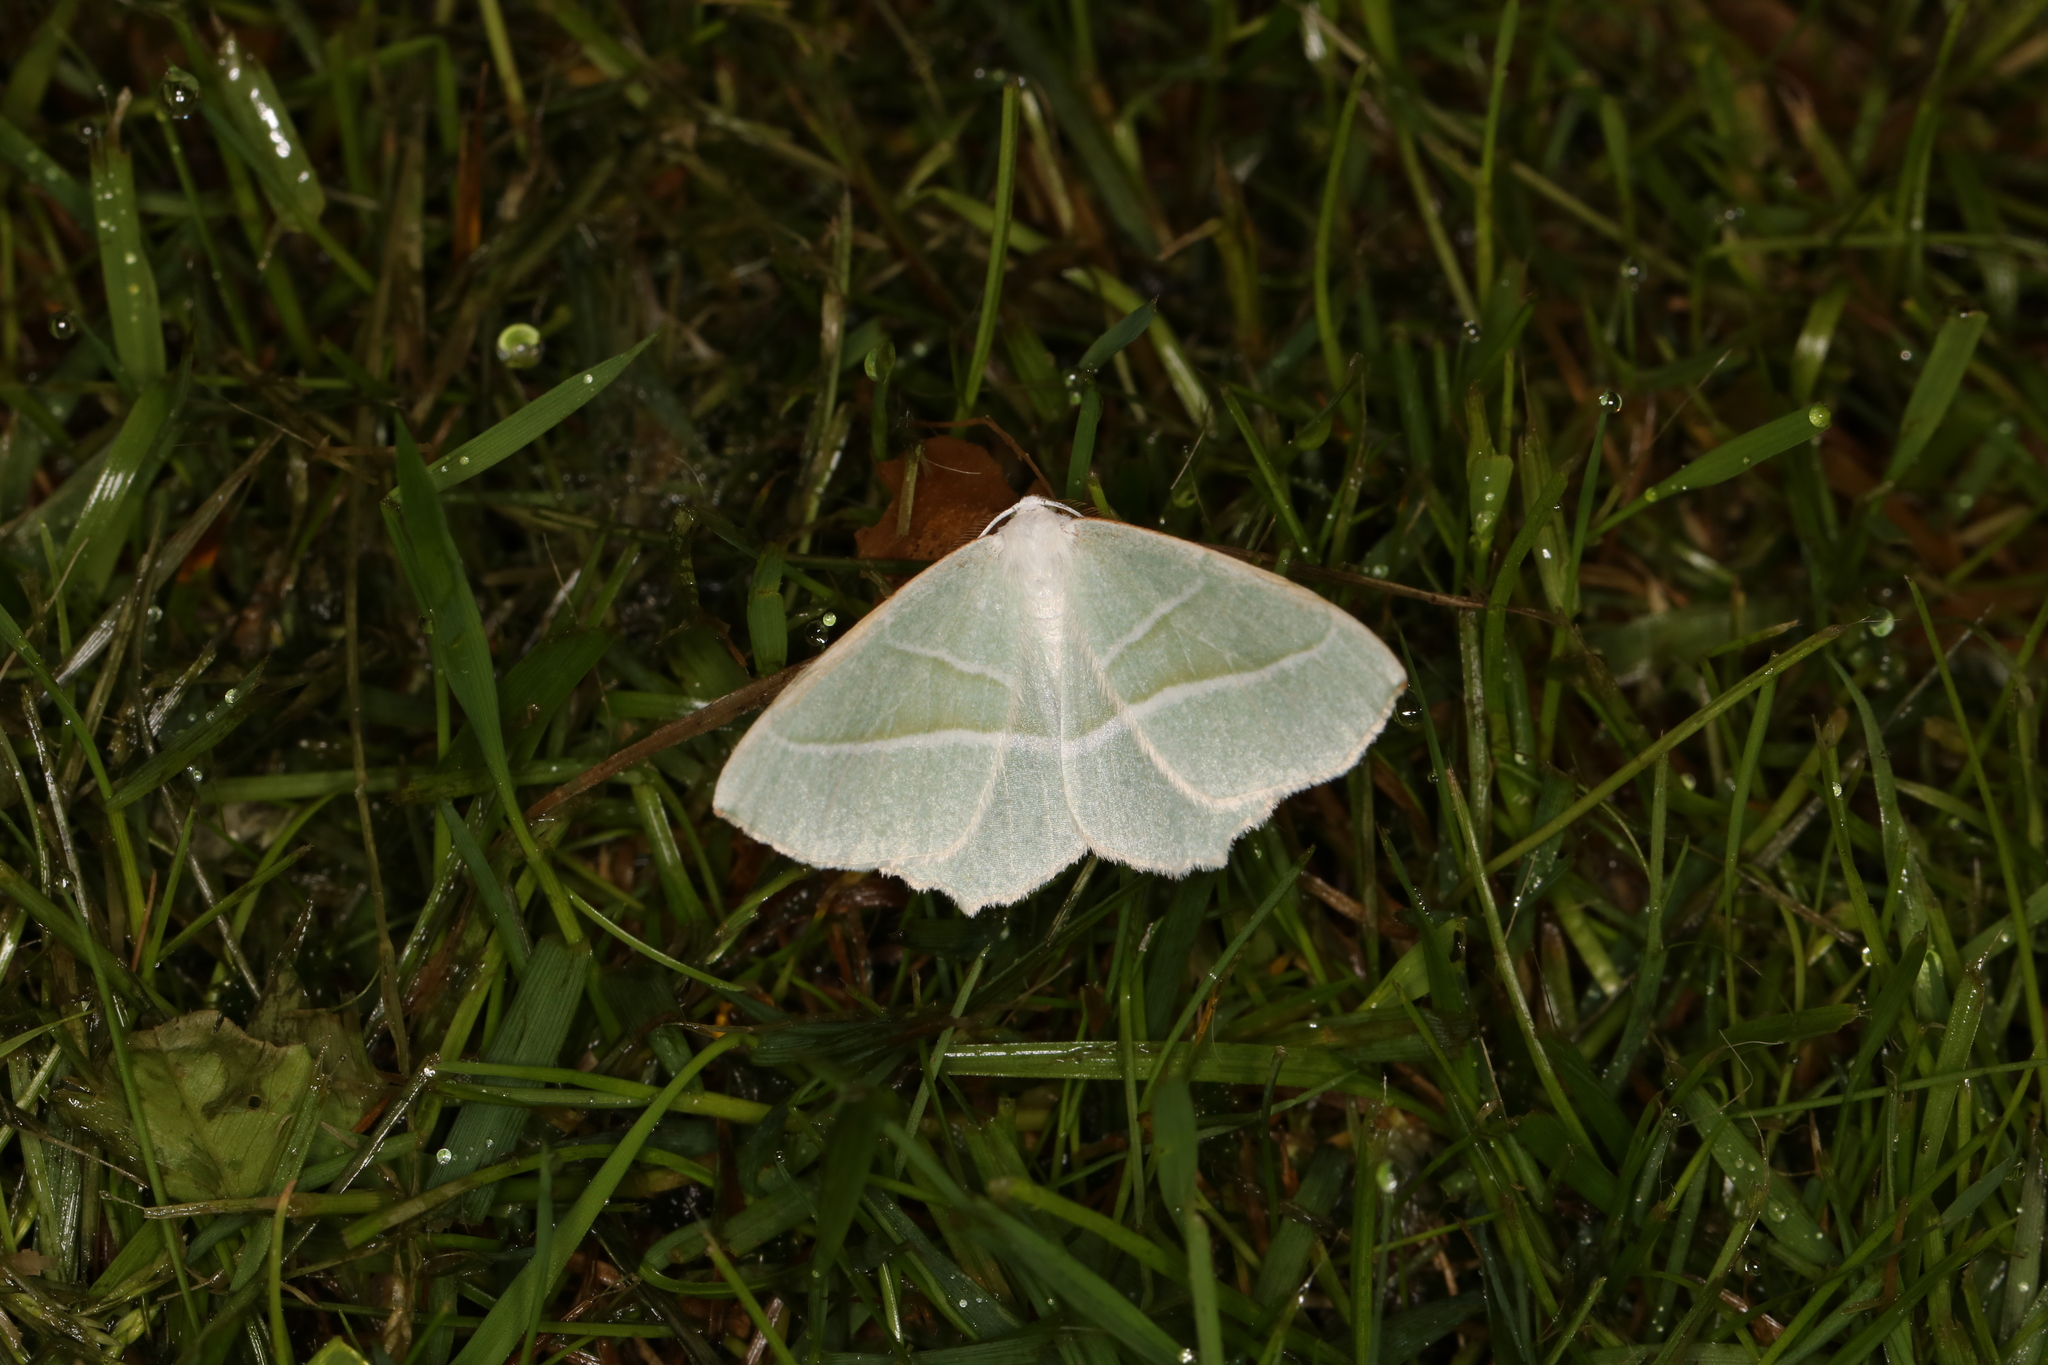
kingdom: Animalia
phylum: Arthropoda
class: Insecta
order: Lepidoptera
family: Geometridae
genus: Campaea
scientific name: Campaea margaritaria
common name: Light emerald
